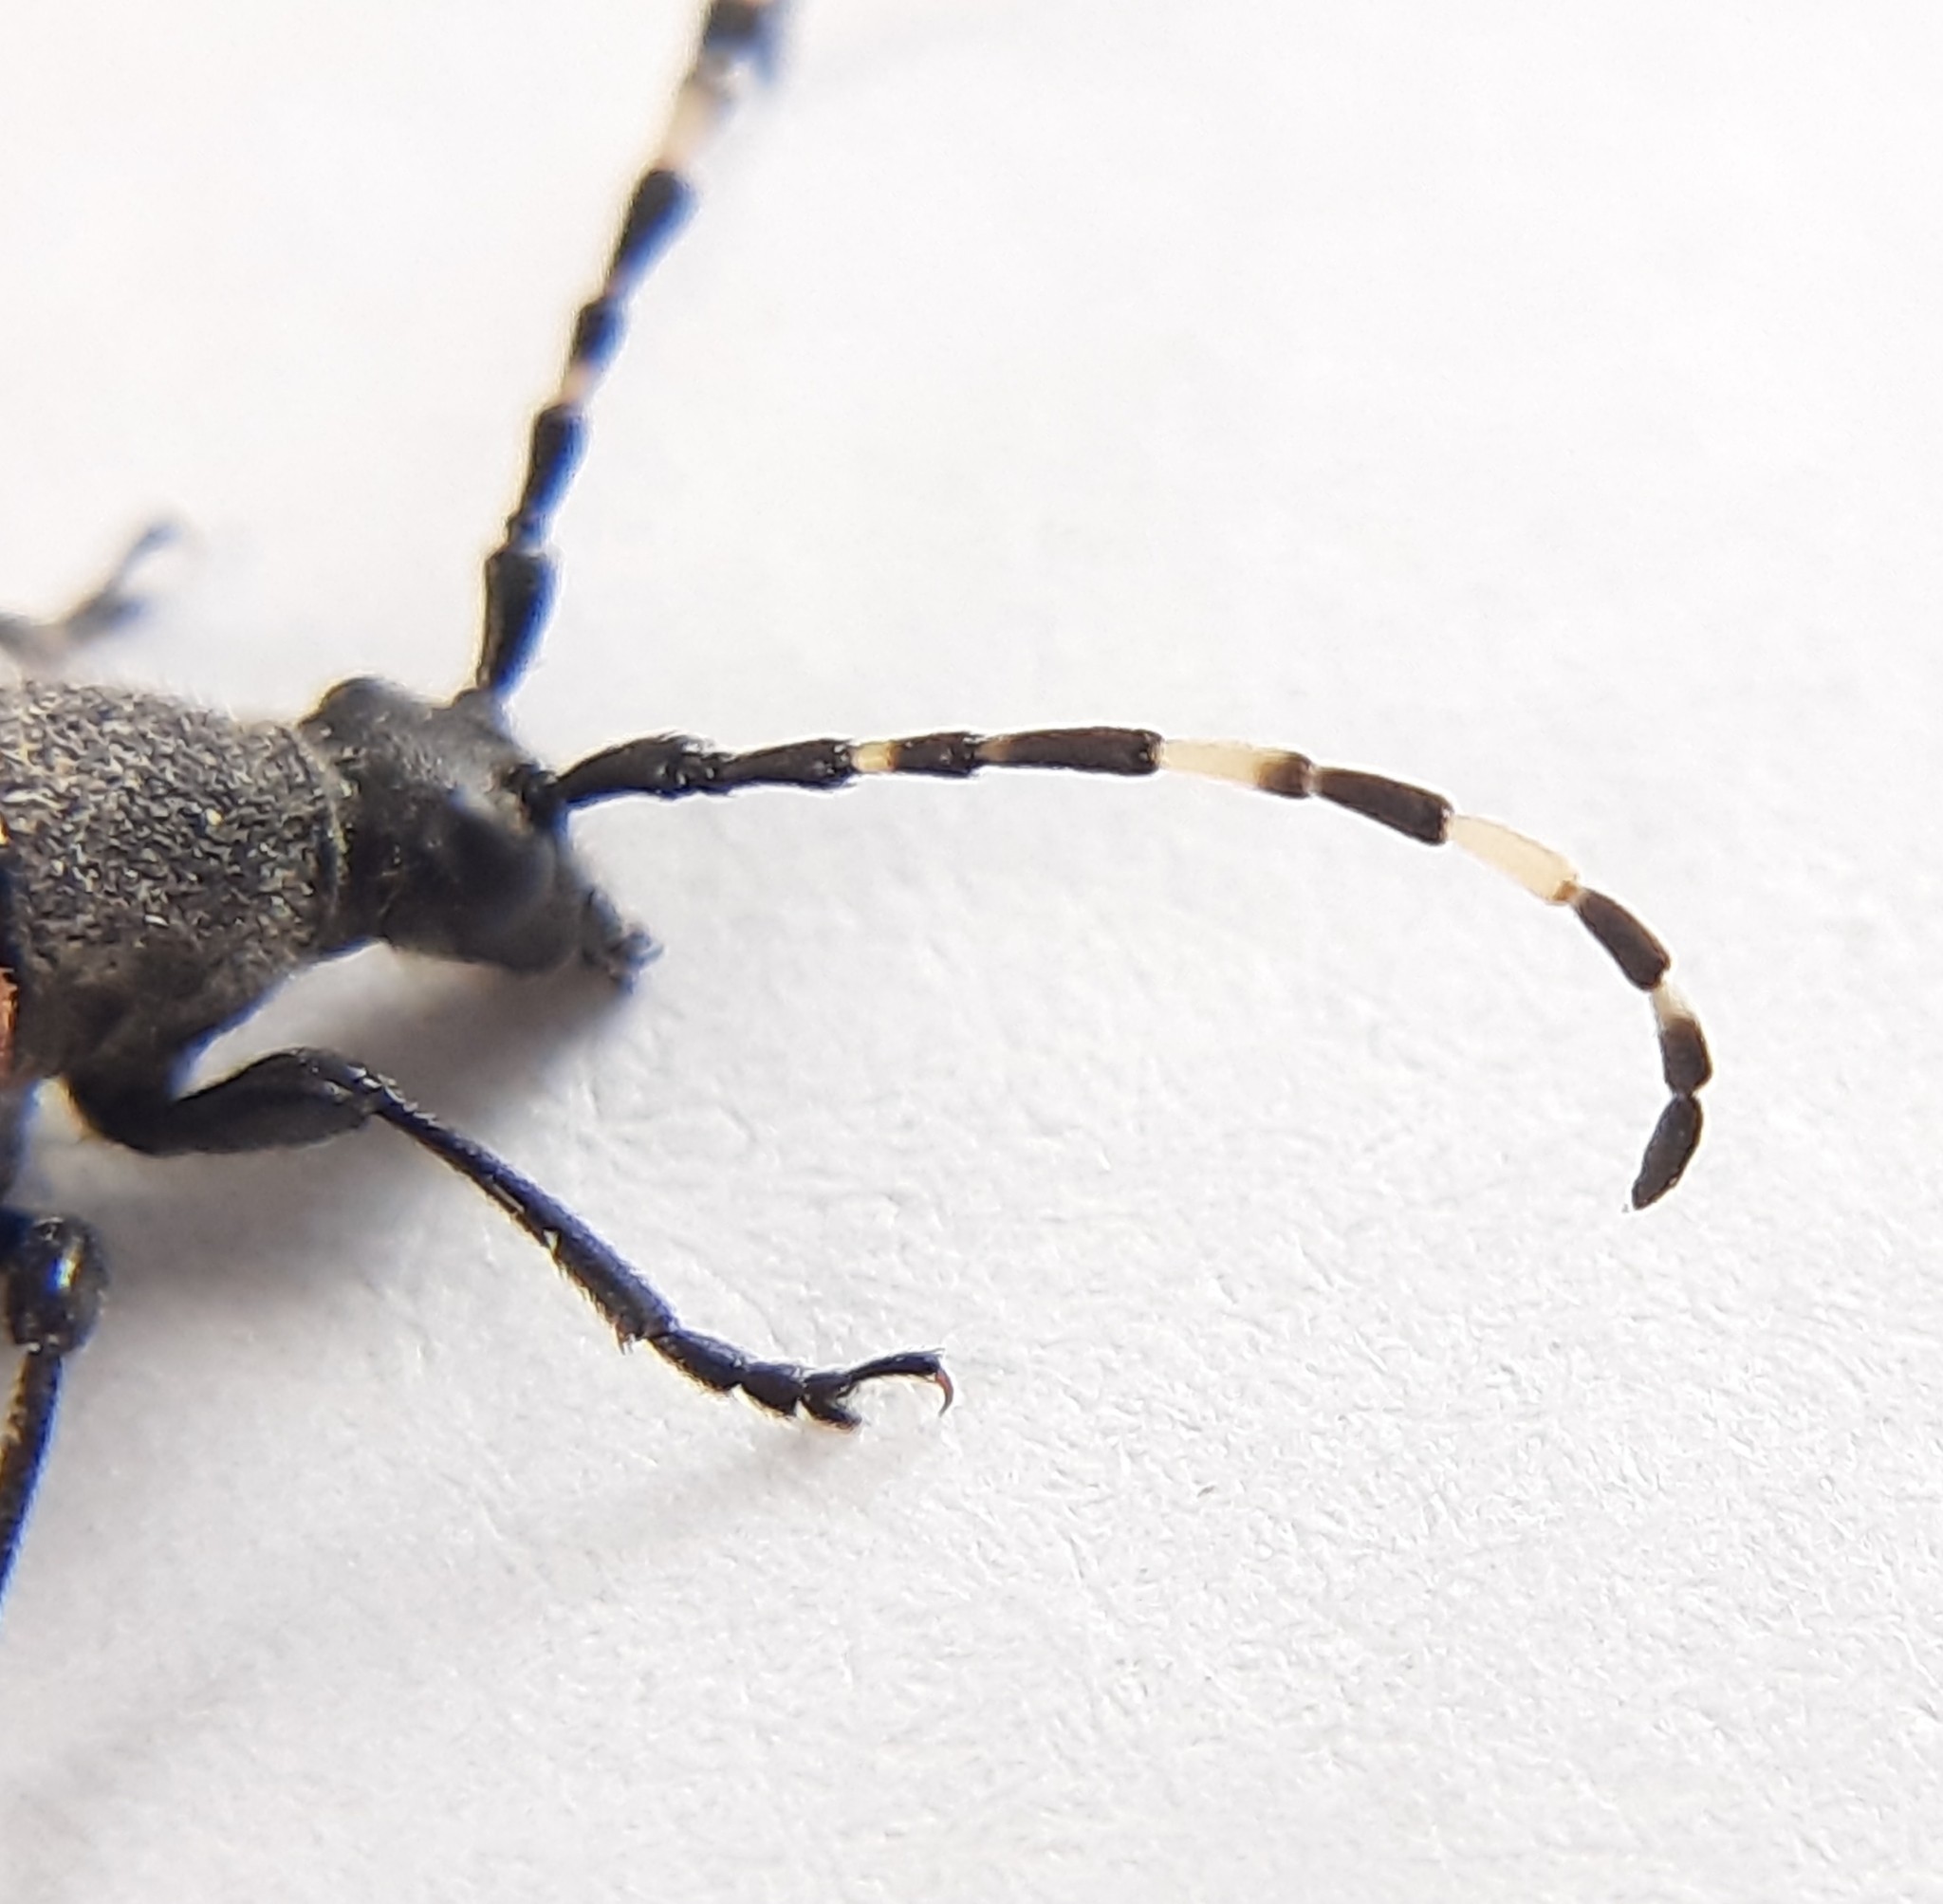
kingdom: Animalia
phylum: Arthropoda
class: Insecta
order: Coleoptera
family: Cerambycidae
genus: Stictoleptura
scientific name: Stictoleptura canadensis
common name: Red-shouldered pine borer
